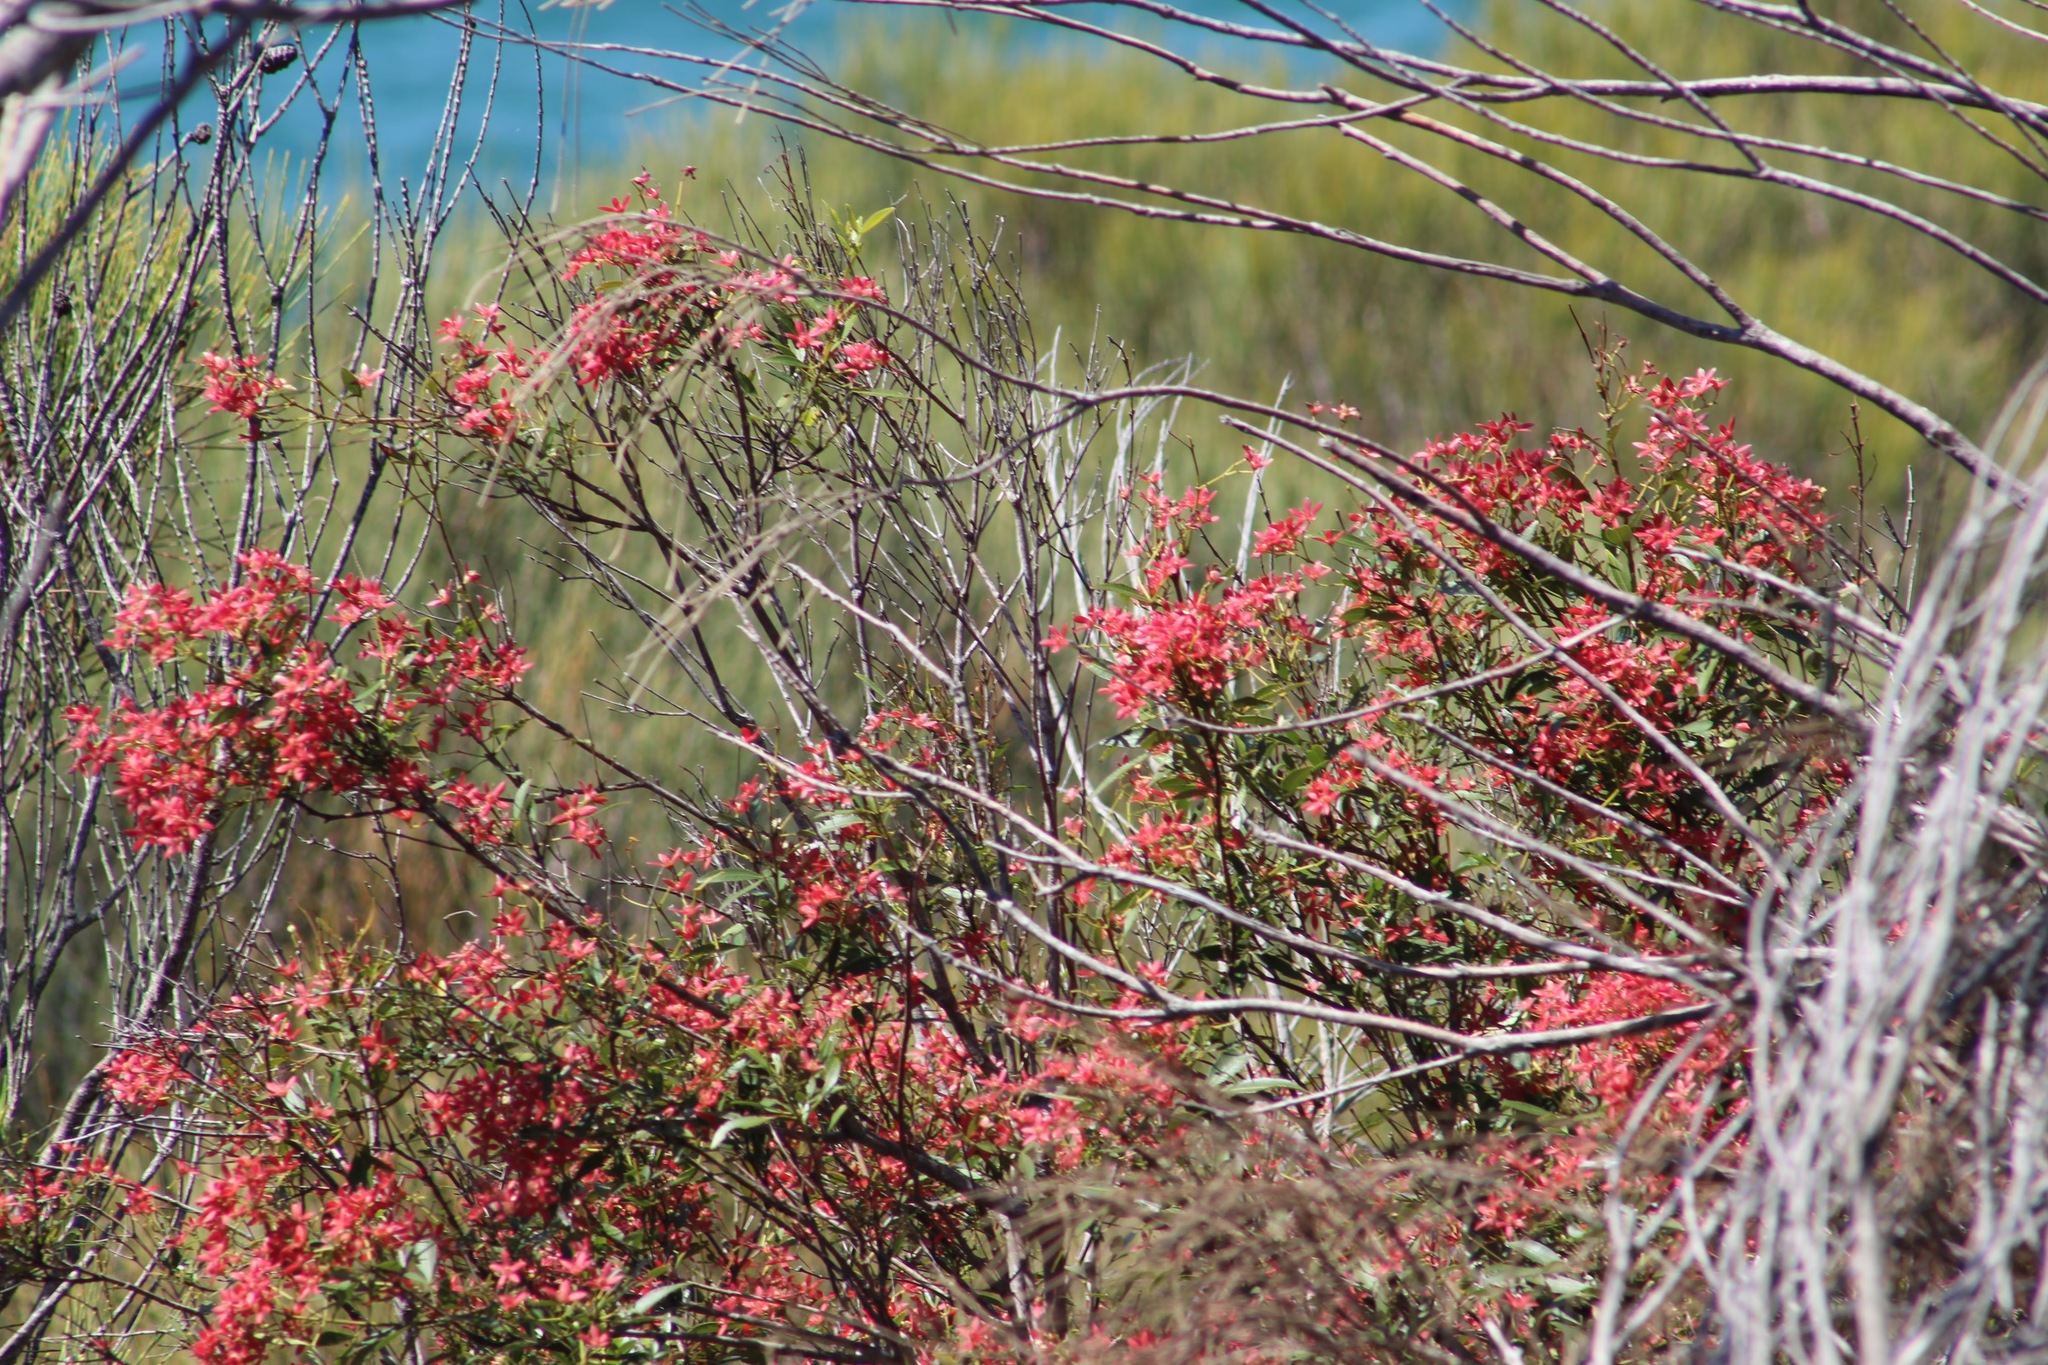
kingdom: Plantae
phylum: Tracheophyta
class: Magnoliopsida
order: Oxalidales
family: Cunoniaceae
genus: Ceratopetalum
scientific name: Ceratopetalum gummiferum
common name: Christmasbush
